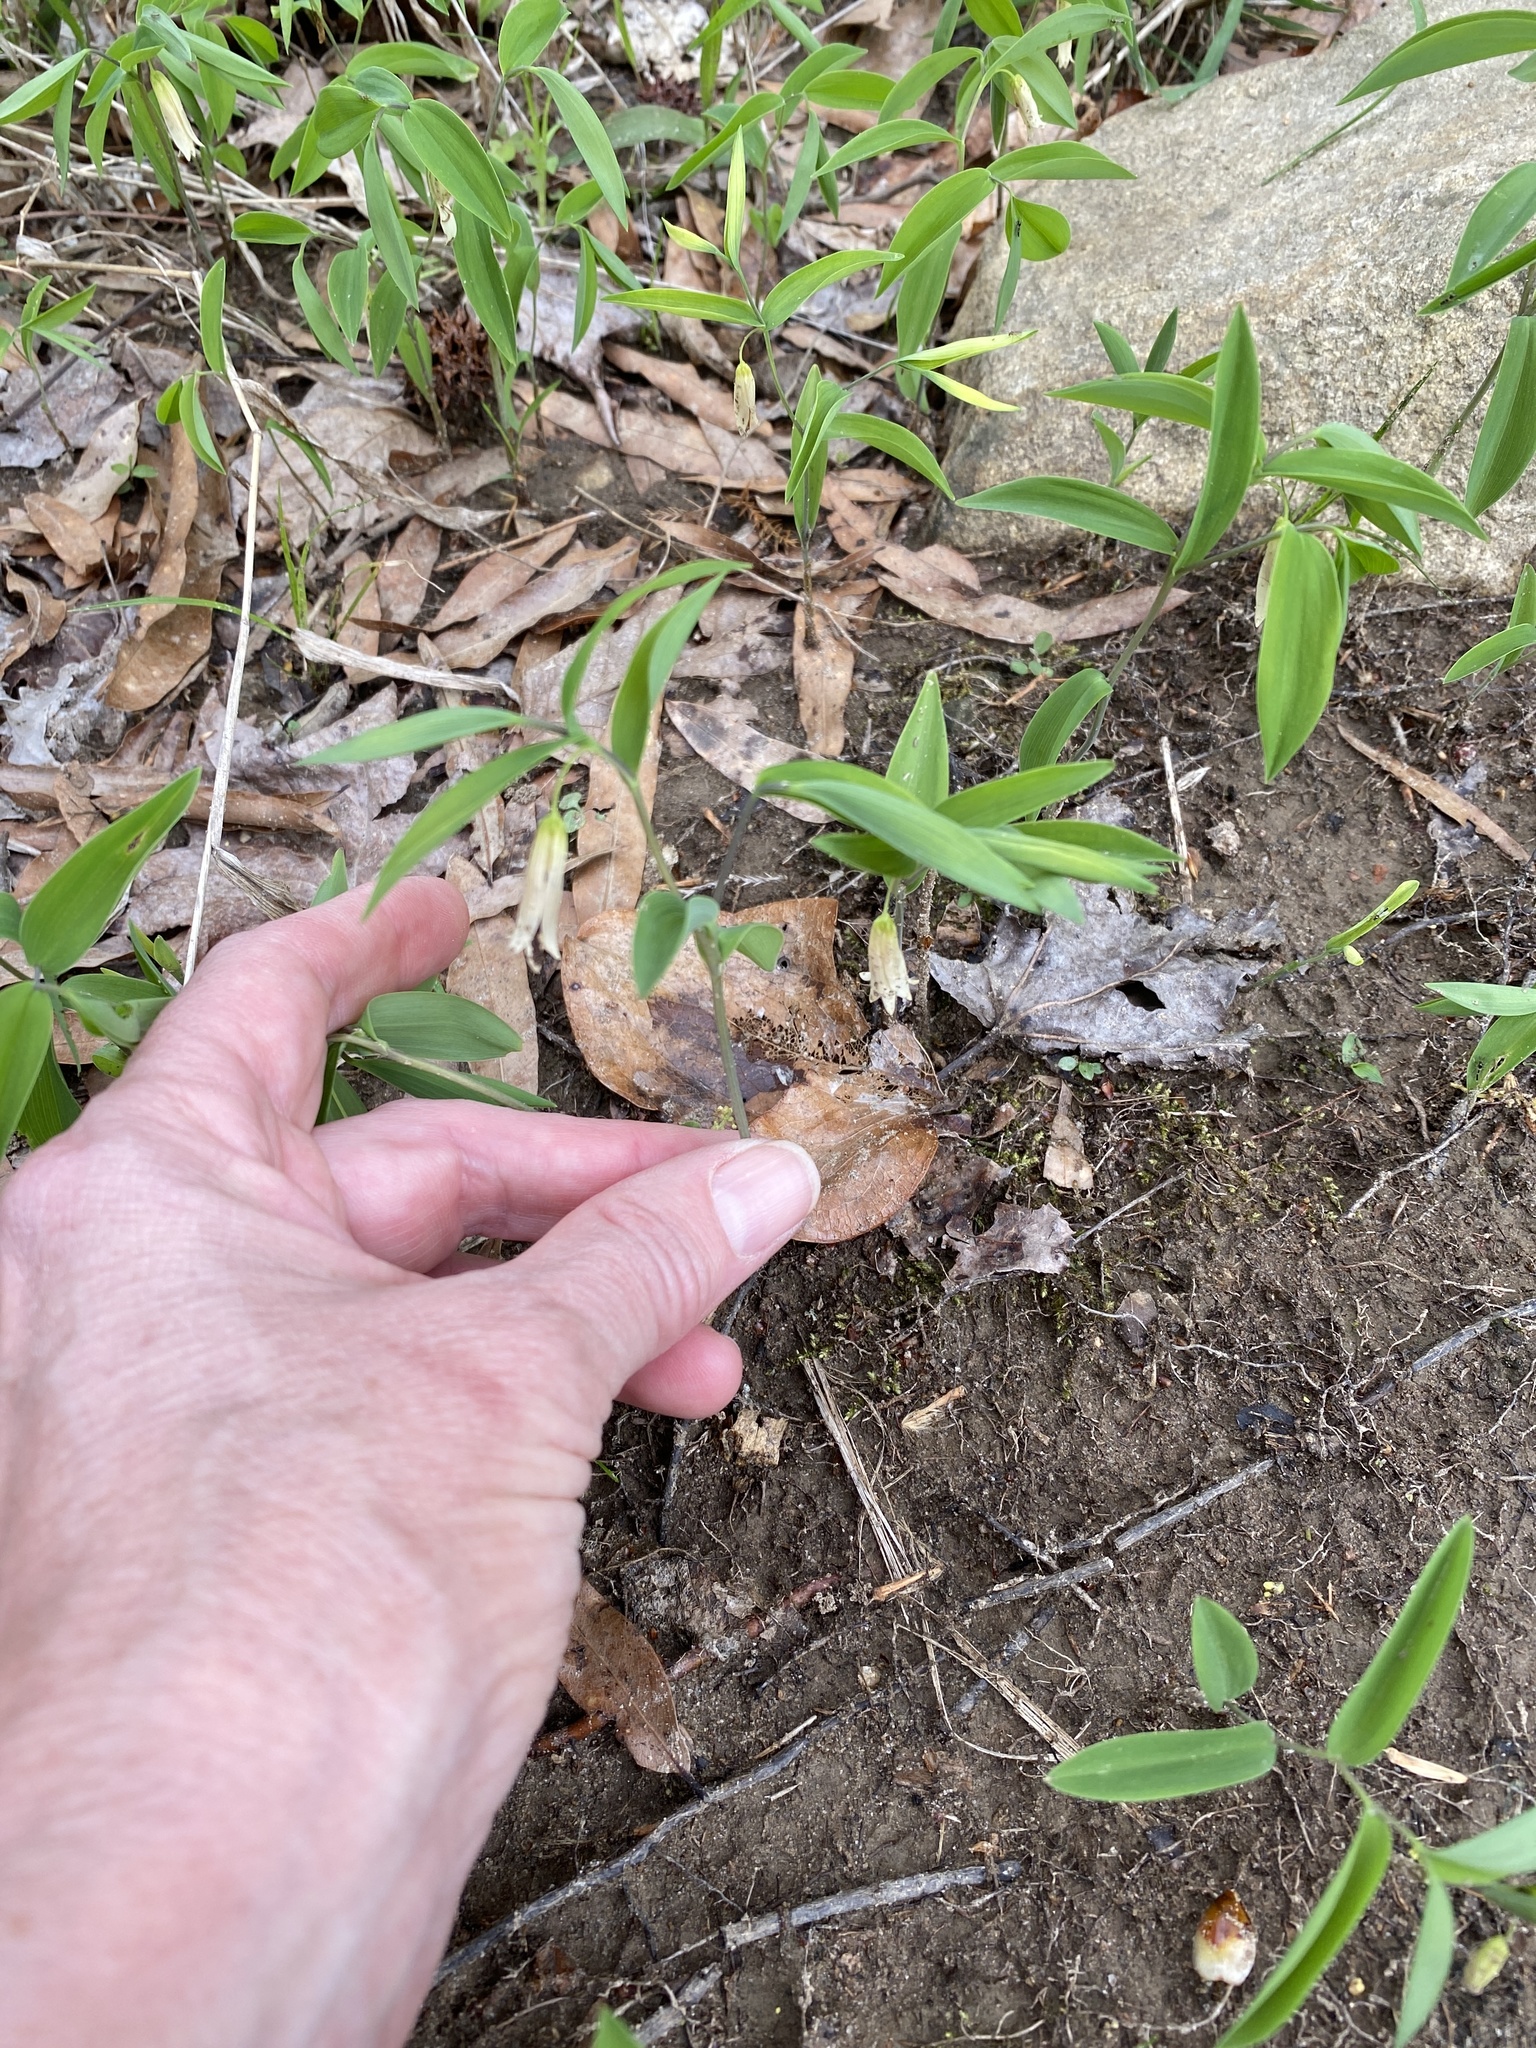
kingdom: Plantae
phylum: Tracheophyta
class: Liliopsida
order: Liliales
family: Colchicaceae
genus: Uvularia
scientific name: Uvularia sessilifolia
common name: Straw-lily
